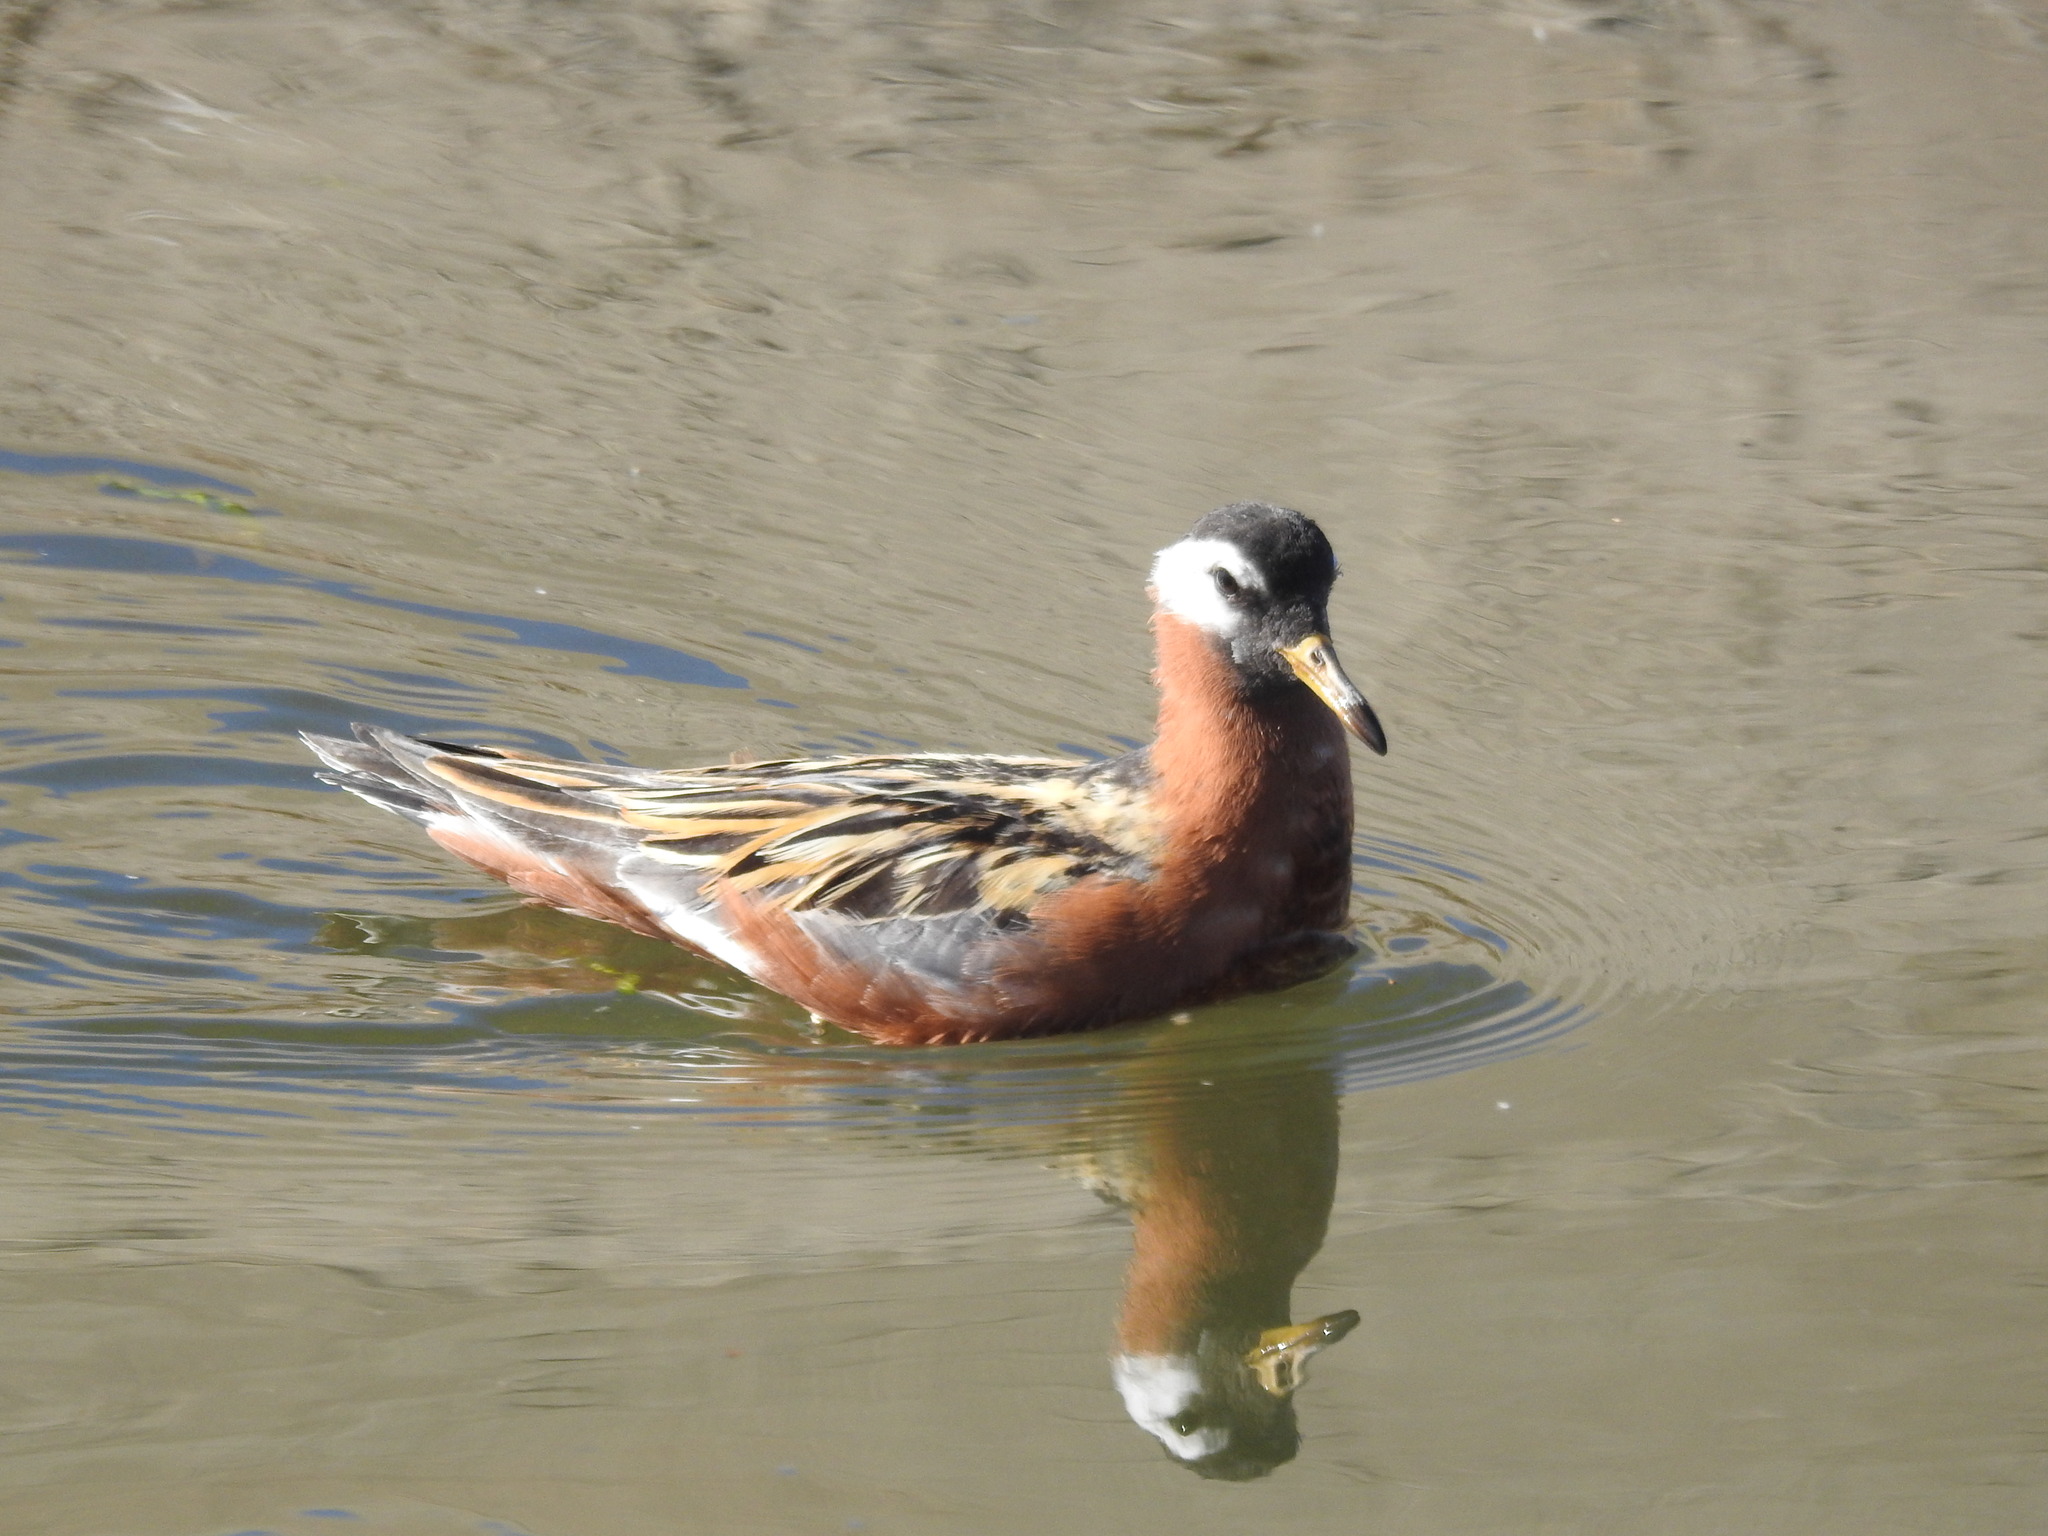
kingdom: Animalia
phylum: Chordata
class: Aves
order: Charadriiformes
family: Scolopacidae
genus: Phalaropus
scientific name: Phalaropus fulicarius
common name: Red phalarope
